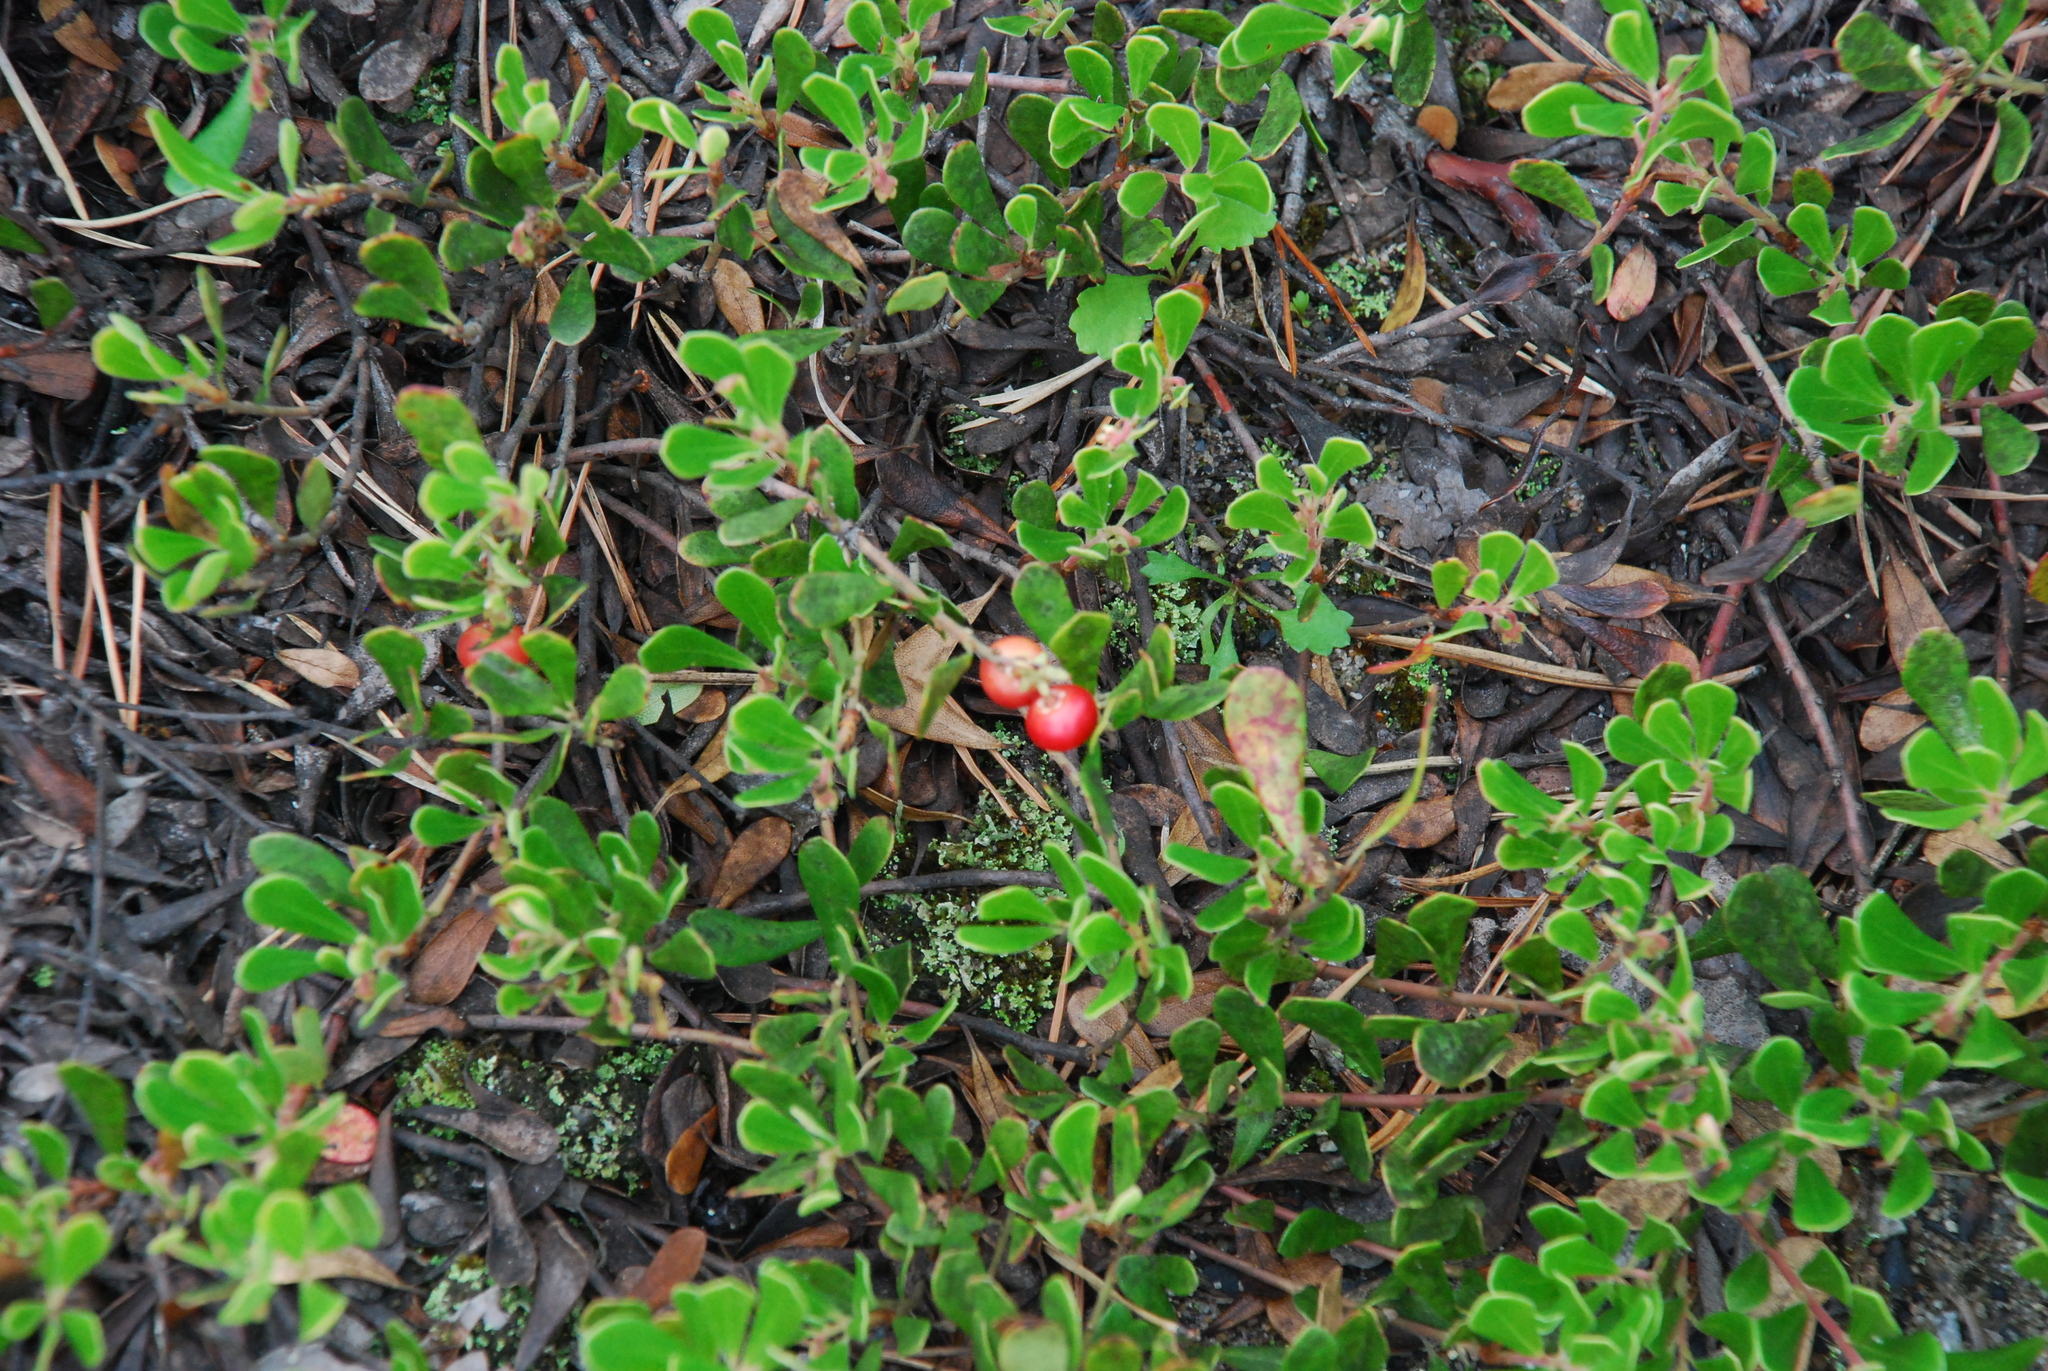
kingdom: Plantae
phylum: Tracheophyta
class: Magnoliopsida
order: Ericales
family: Ericaceae
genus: Arctostaphylos
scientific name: Arctostaphylos uva-ursi
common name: Bearberry
